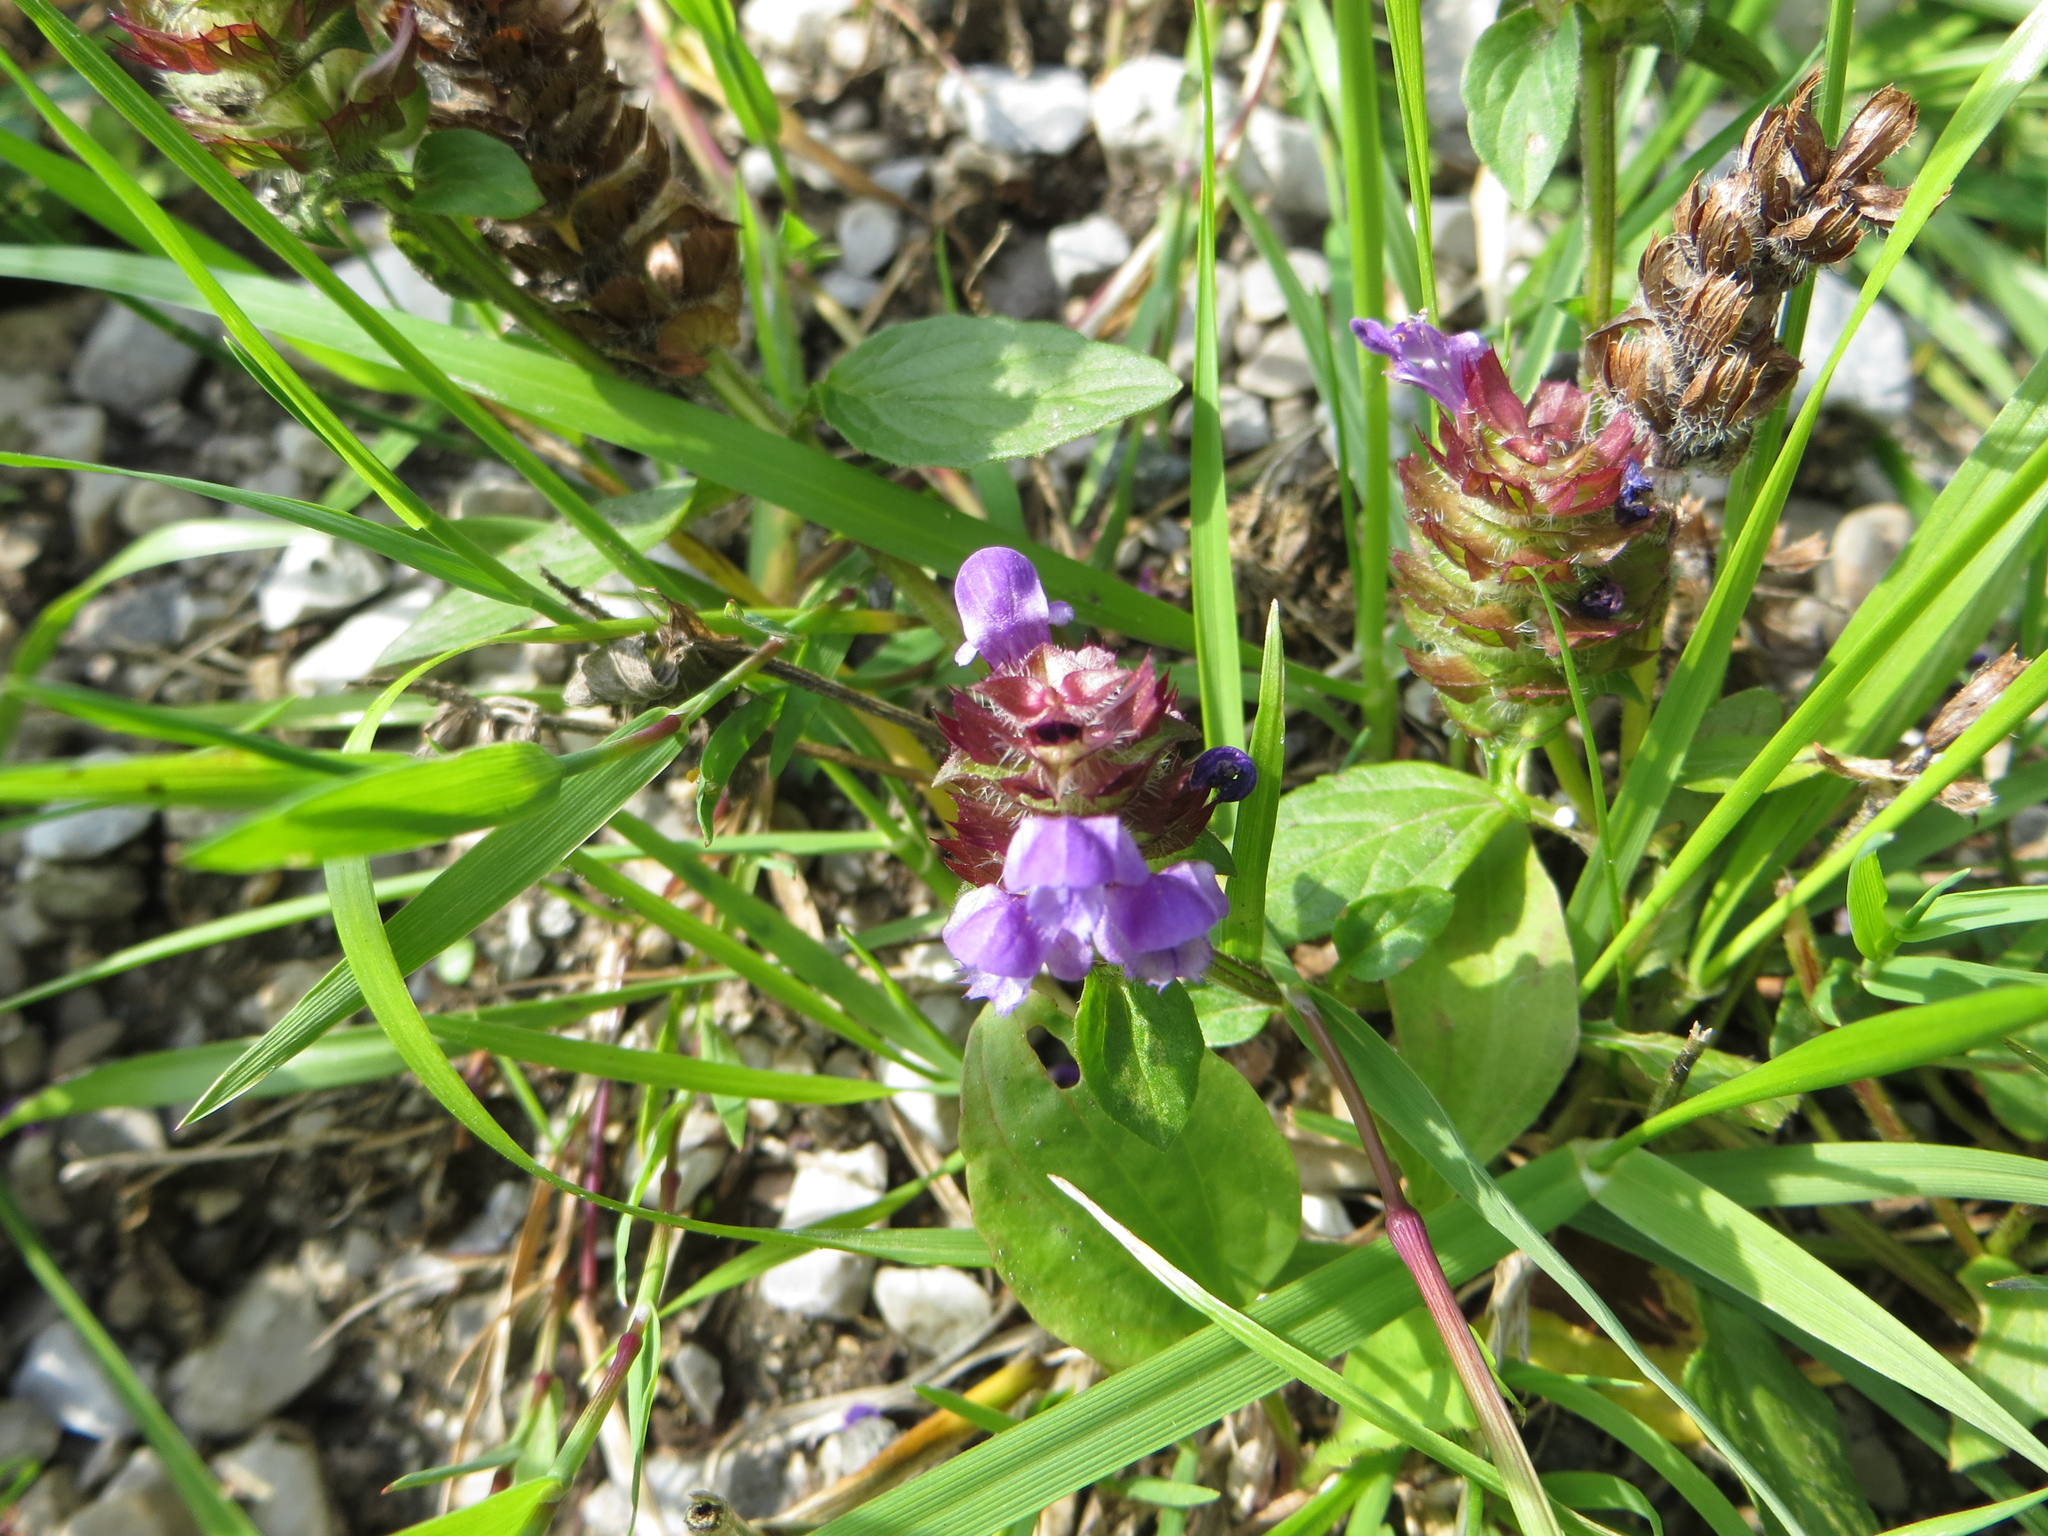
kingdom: Plantae
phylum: Tracheophyta
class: Magnoliopsida
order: Lamiales
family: Lamiaceae
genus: Prunella
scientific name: Prunella vulgaris
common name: Heal-all
